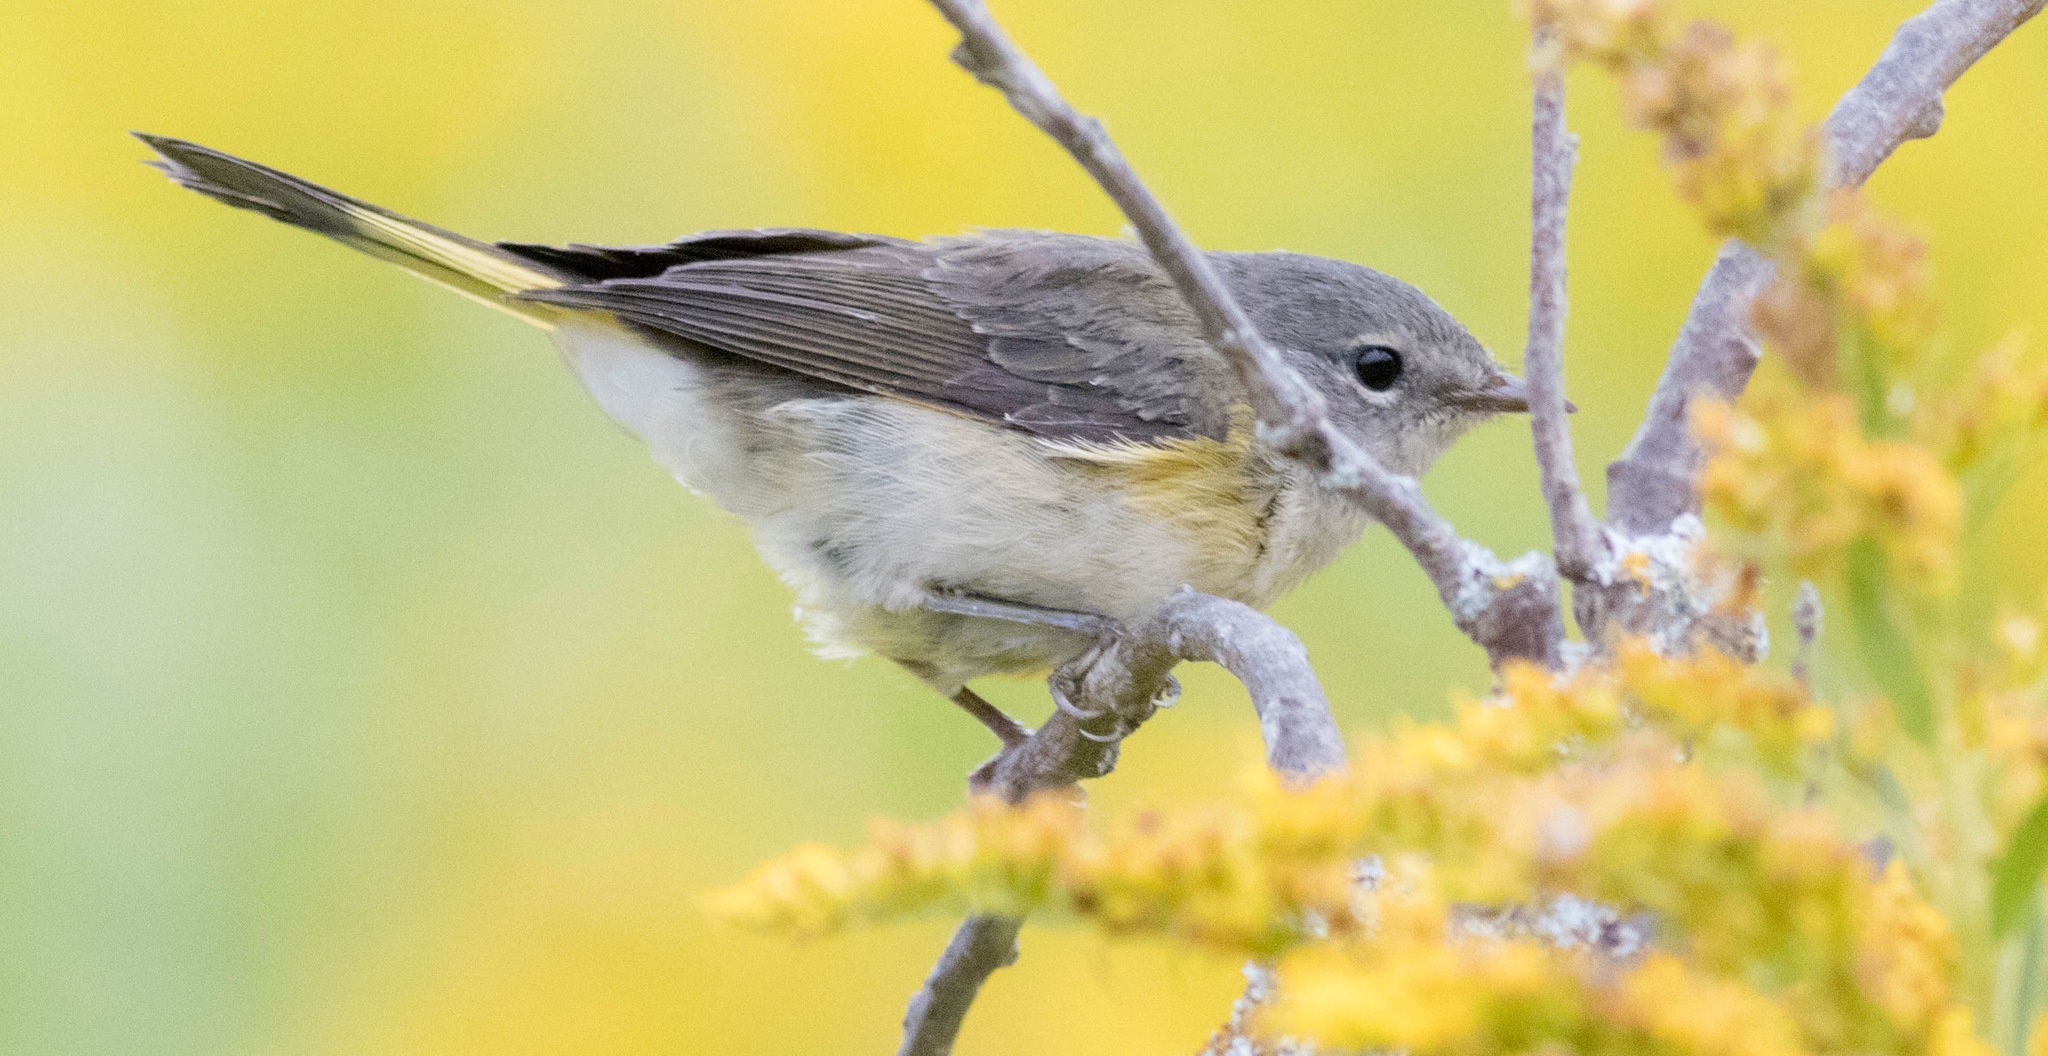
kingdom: Animalia
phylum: Chordata
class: Aves
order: Passeriformes
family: Parulidae
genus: Setophaga
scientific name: Setophaga ruticilla
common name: American redstart
